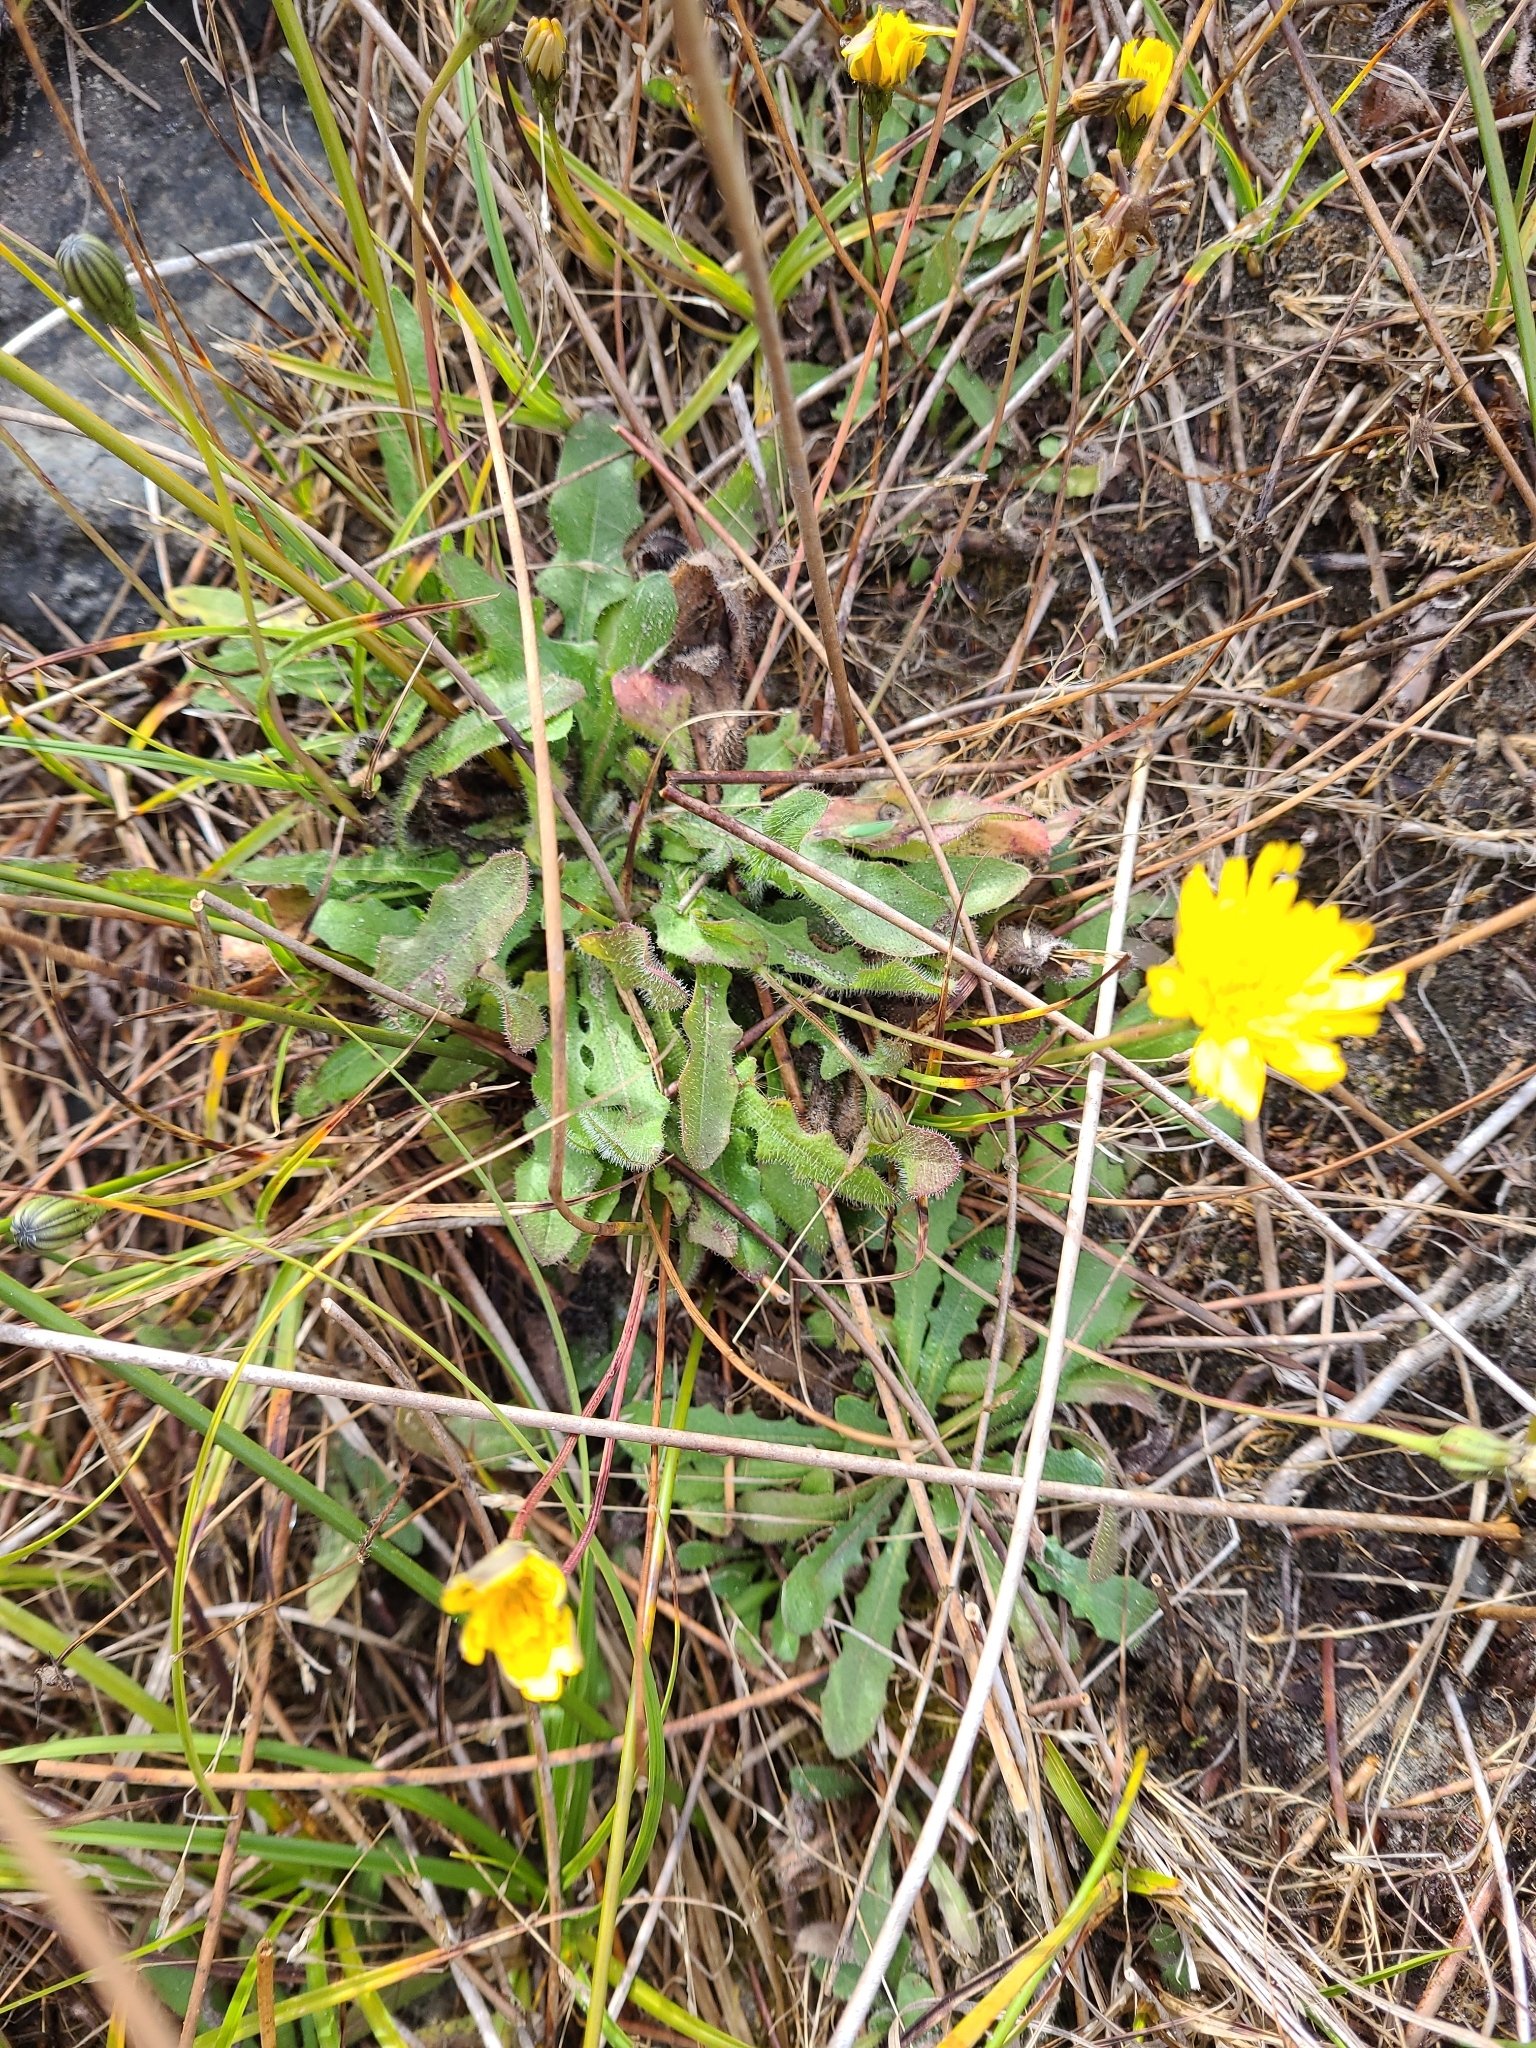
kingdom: Plantae
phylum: Tracheophyta
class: Magnoliopsida
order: Asterales
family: Asteraceae
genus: Hypochaeris
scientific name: Hypochaeris radicata
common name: Flatweed
